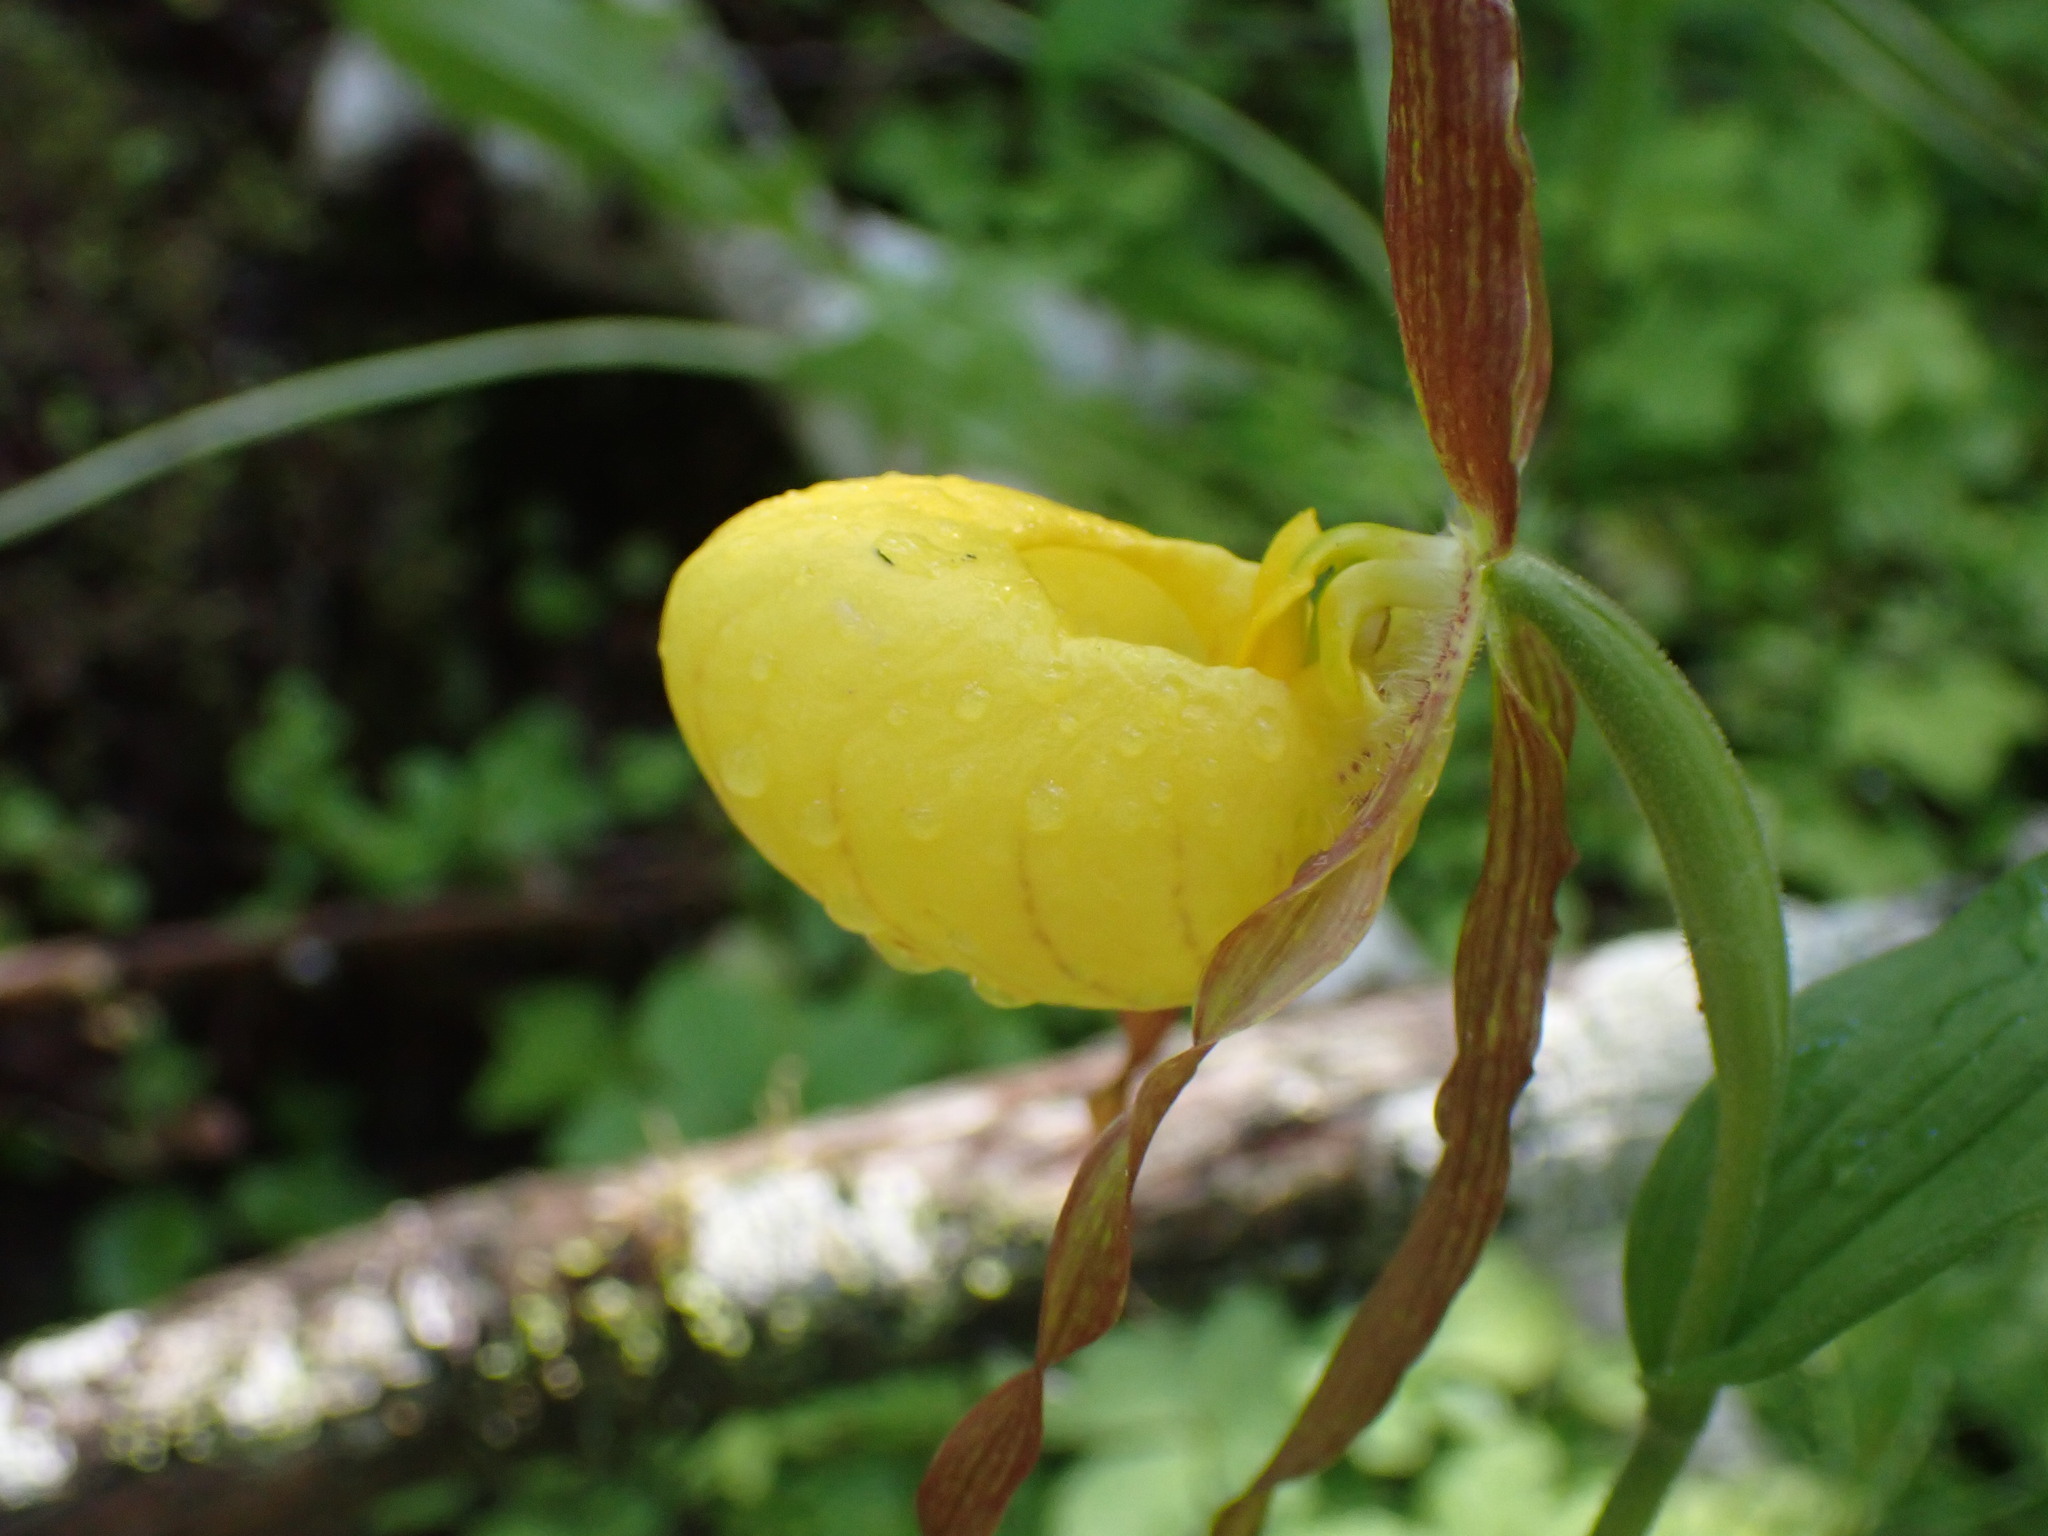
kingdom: Plantae
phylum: Tracheophyta
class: Liliopsida
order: Asparagales
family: Orchidaceae
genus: Cypripedium
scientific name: Cypripedium parviflorum
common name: American yellow lady's-slipper
